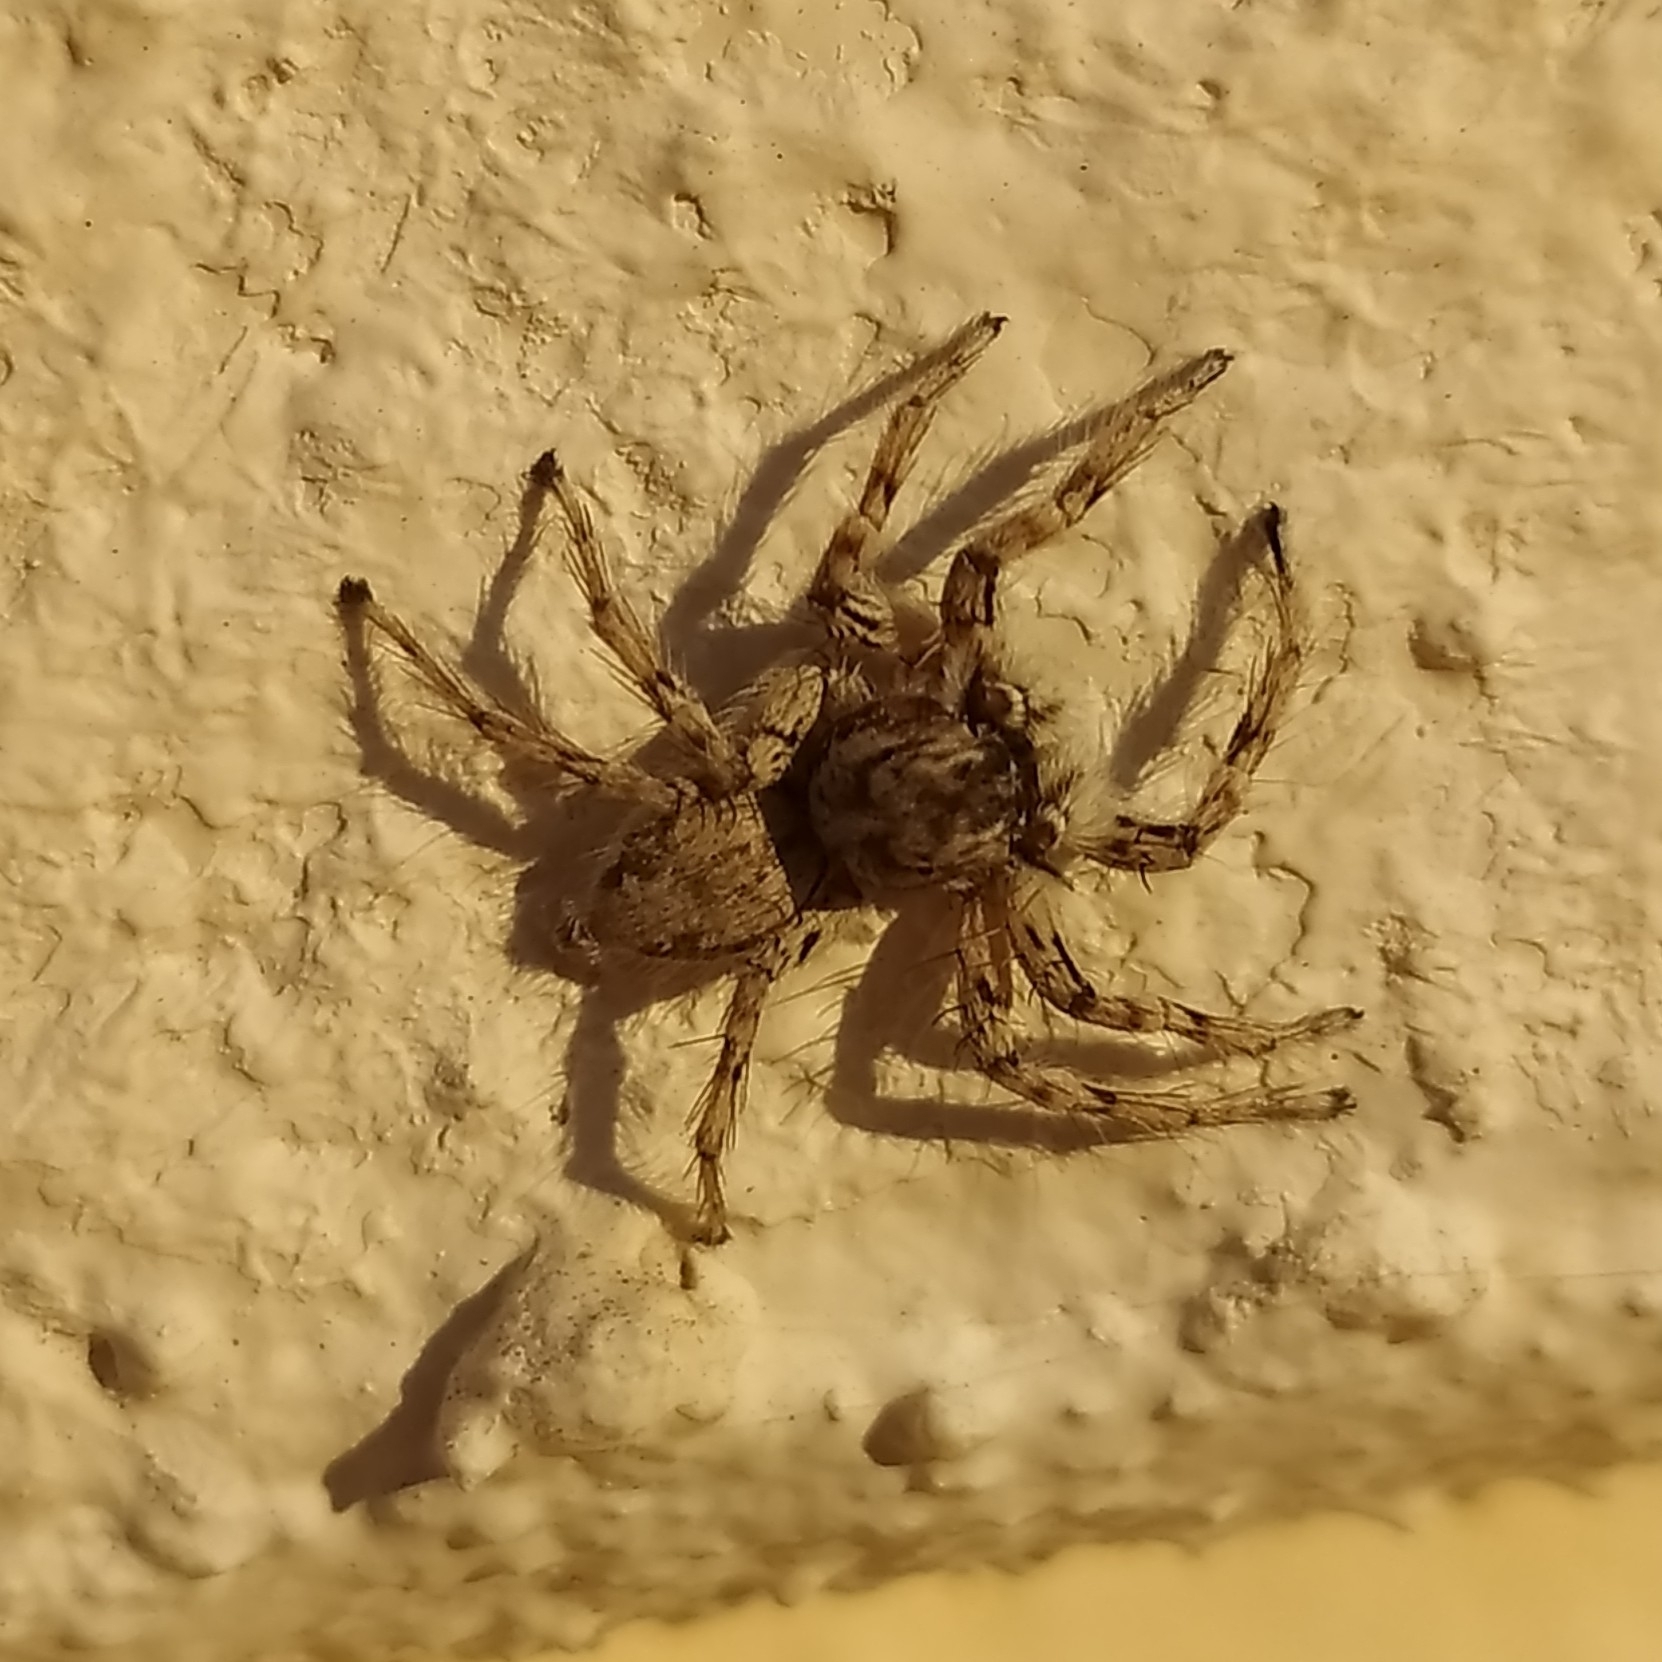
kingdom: Animalia
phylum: Arthropoda
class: Arachnida
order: Araneae
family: Salticidae
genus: Plexippoides
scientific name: Plexippoides flavescens
